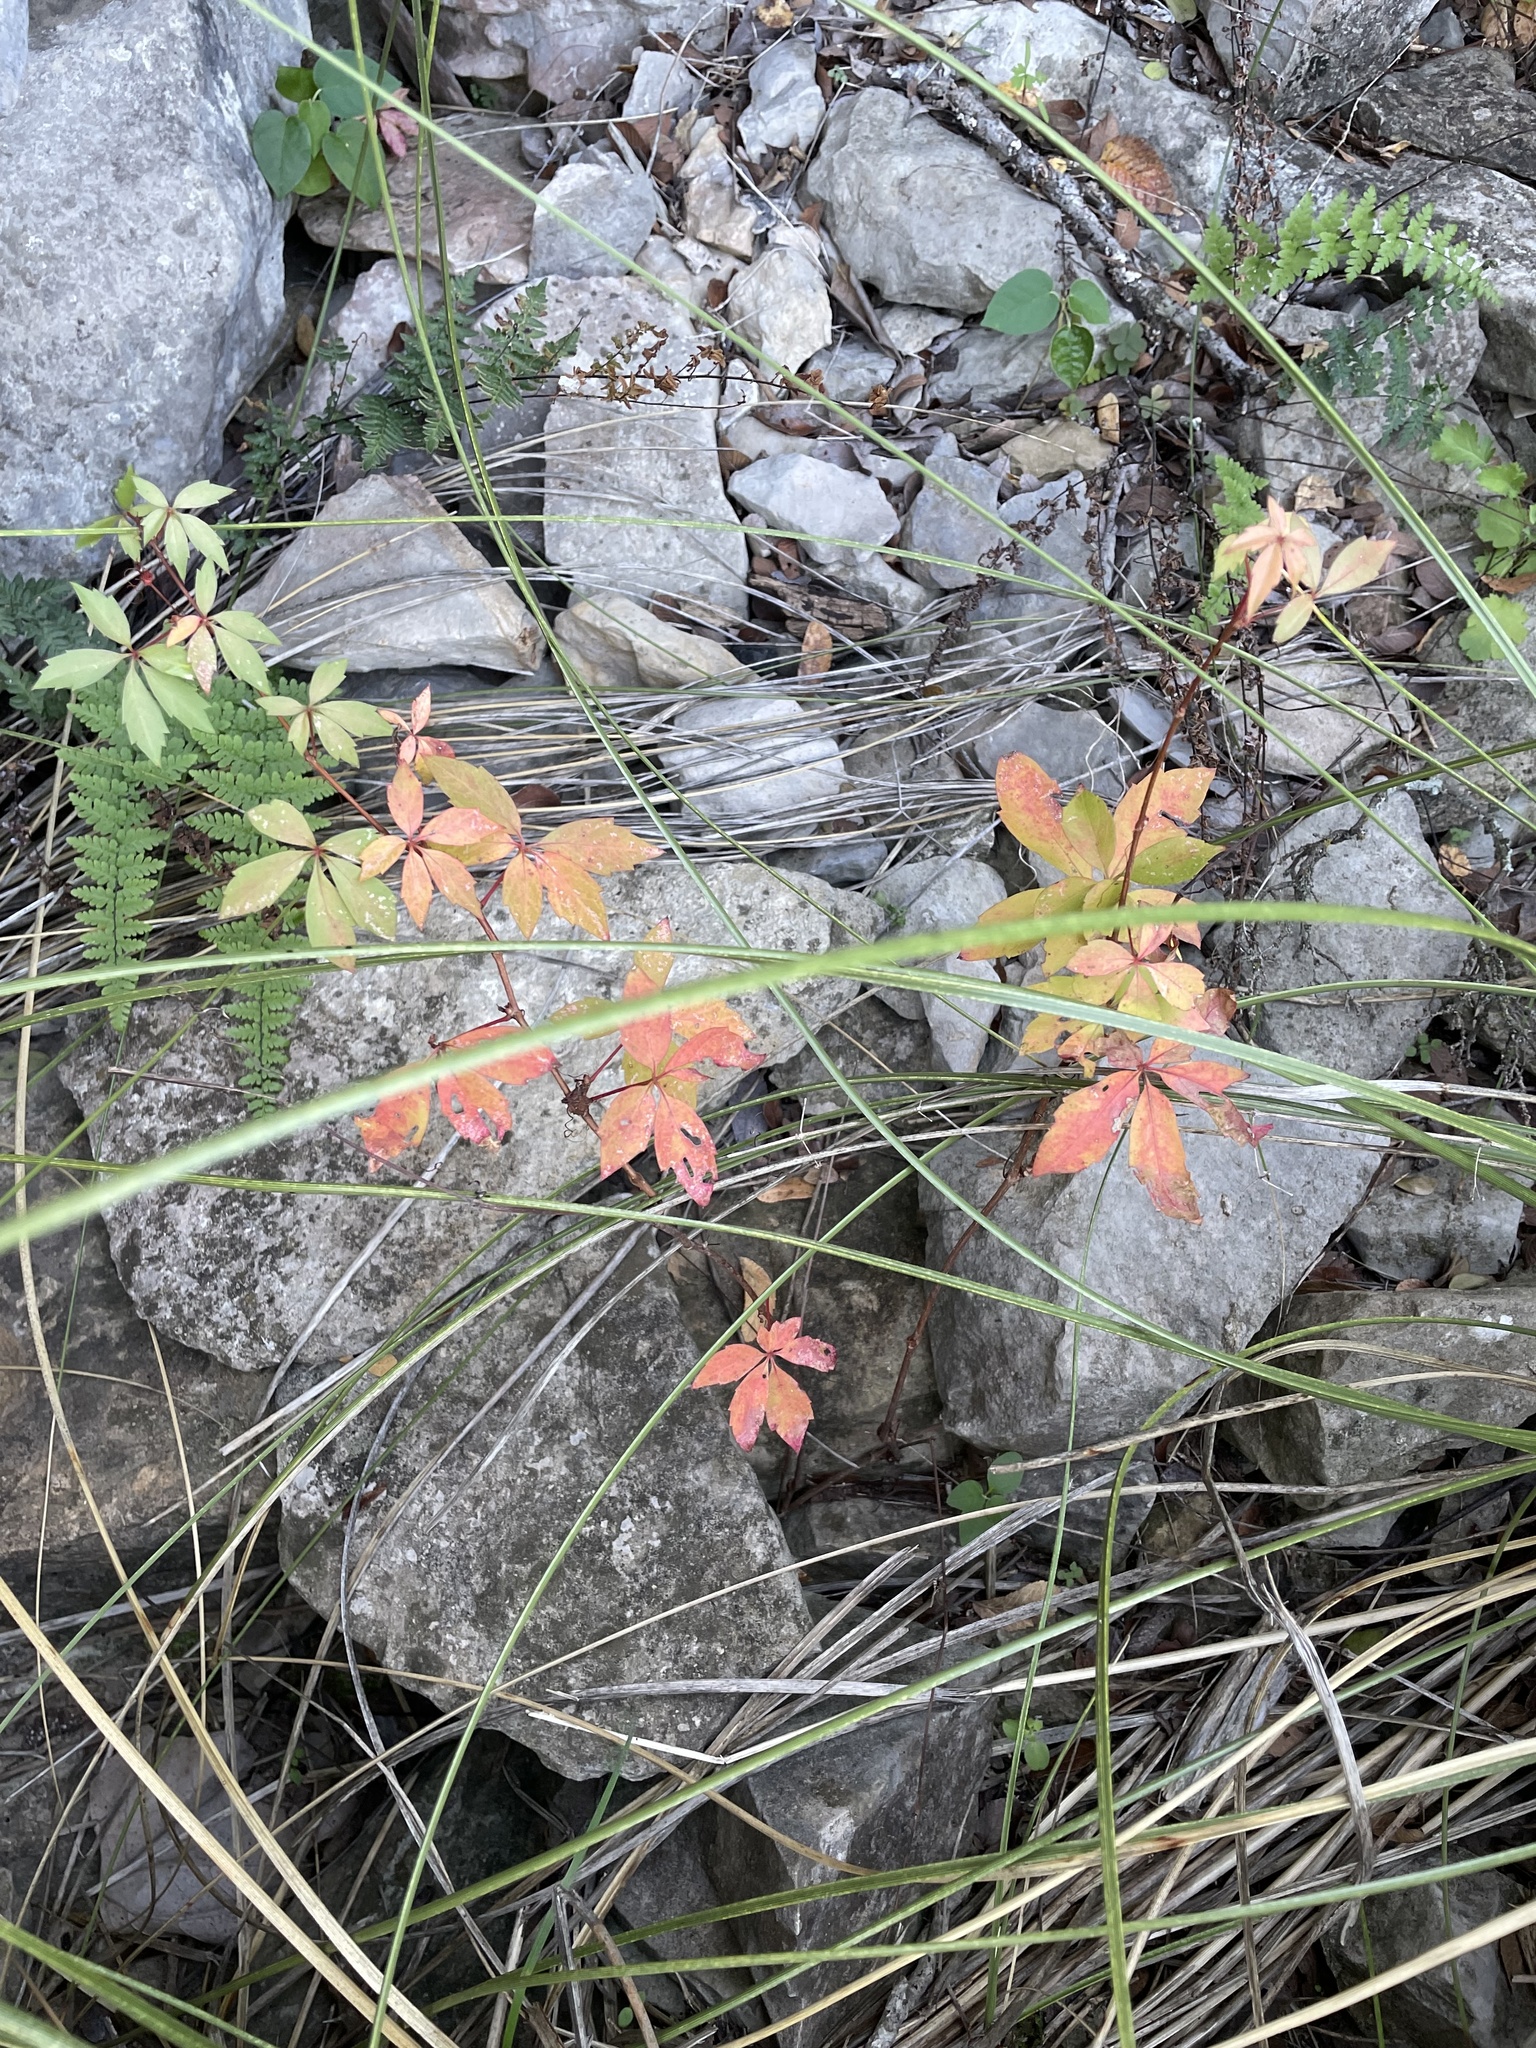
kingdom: Plantae
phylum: Tracheophyta
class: Magnoliopsida
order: Vitales
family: Vitaceae
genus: Parthenocissus
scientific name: Parthenocissus quinquefolia
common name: Virginia-creeper
